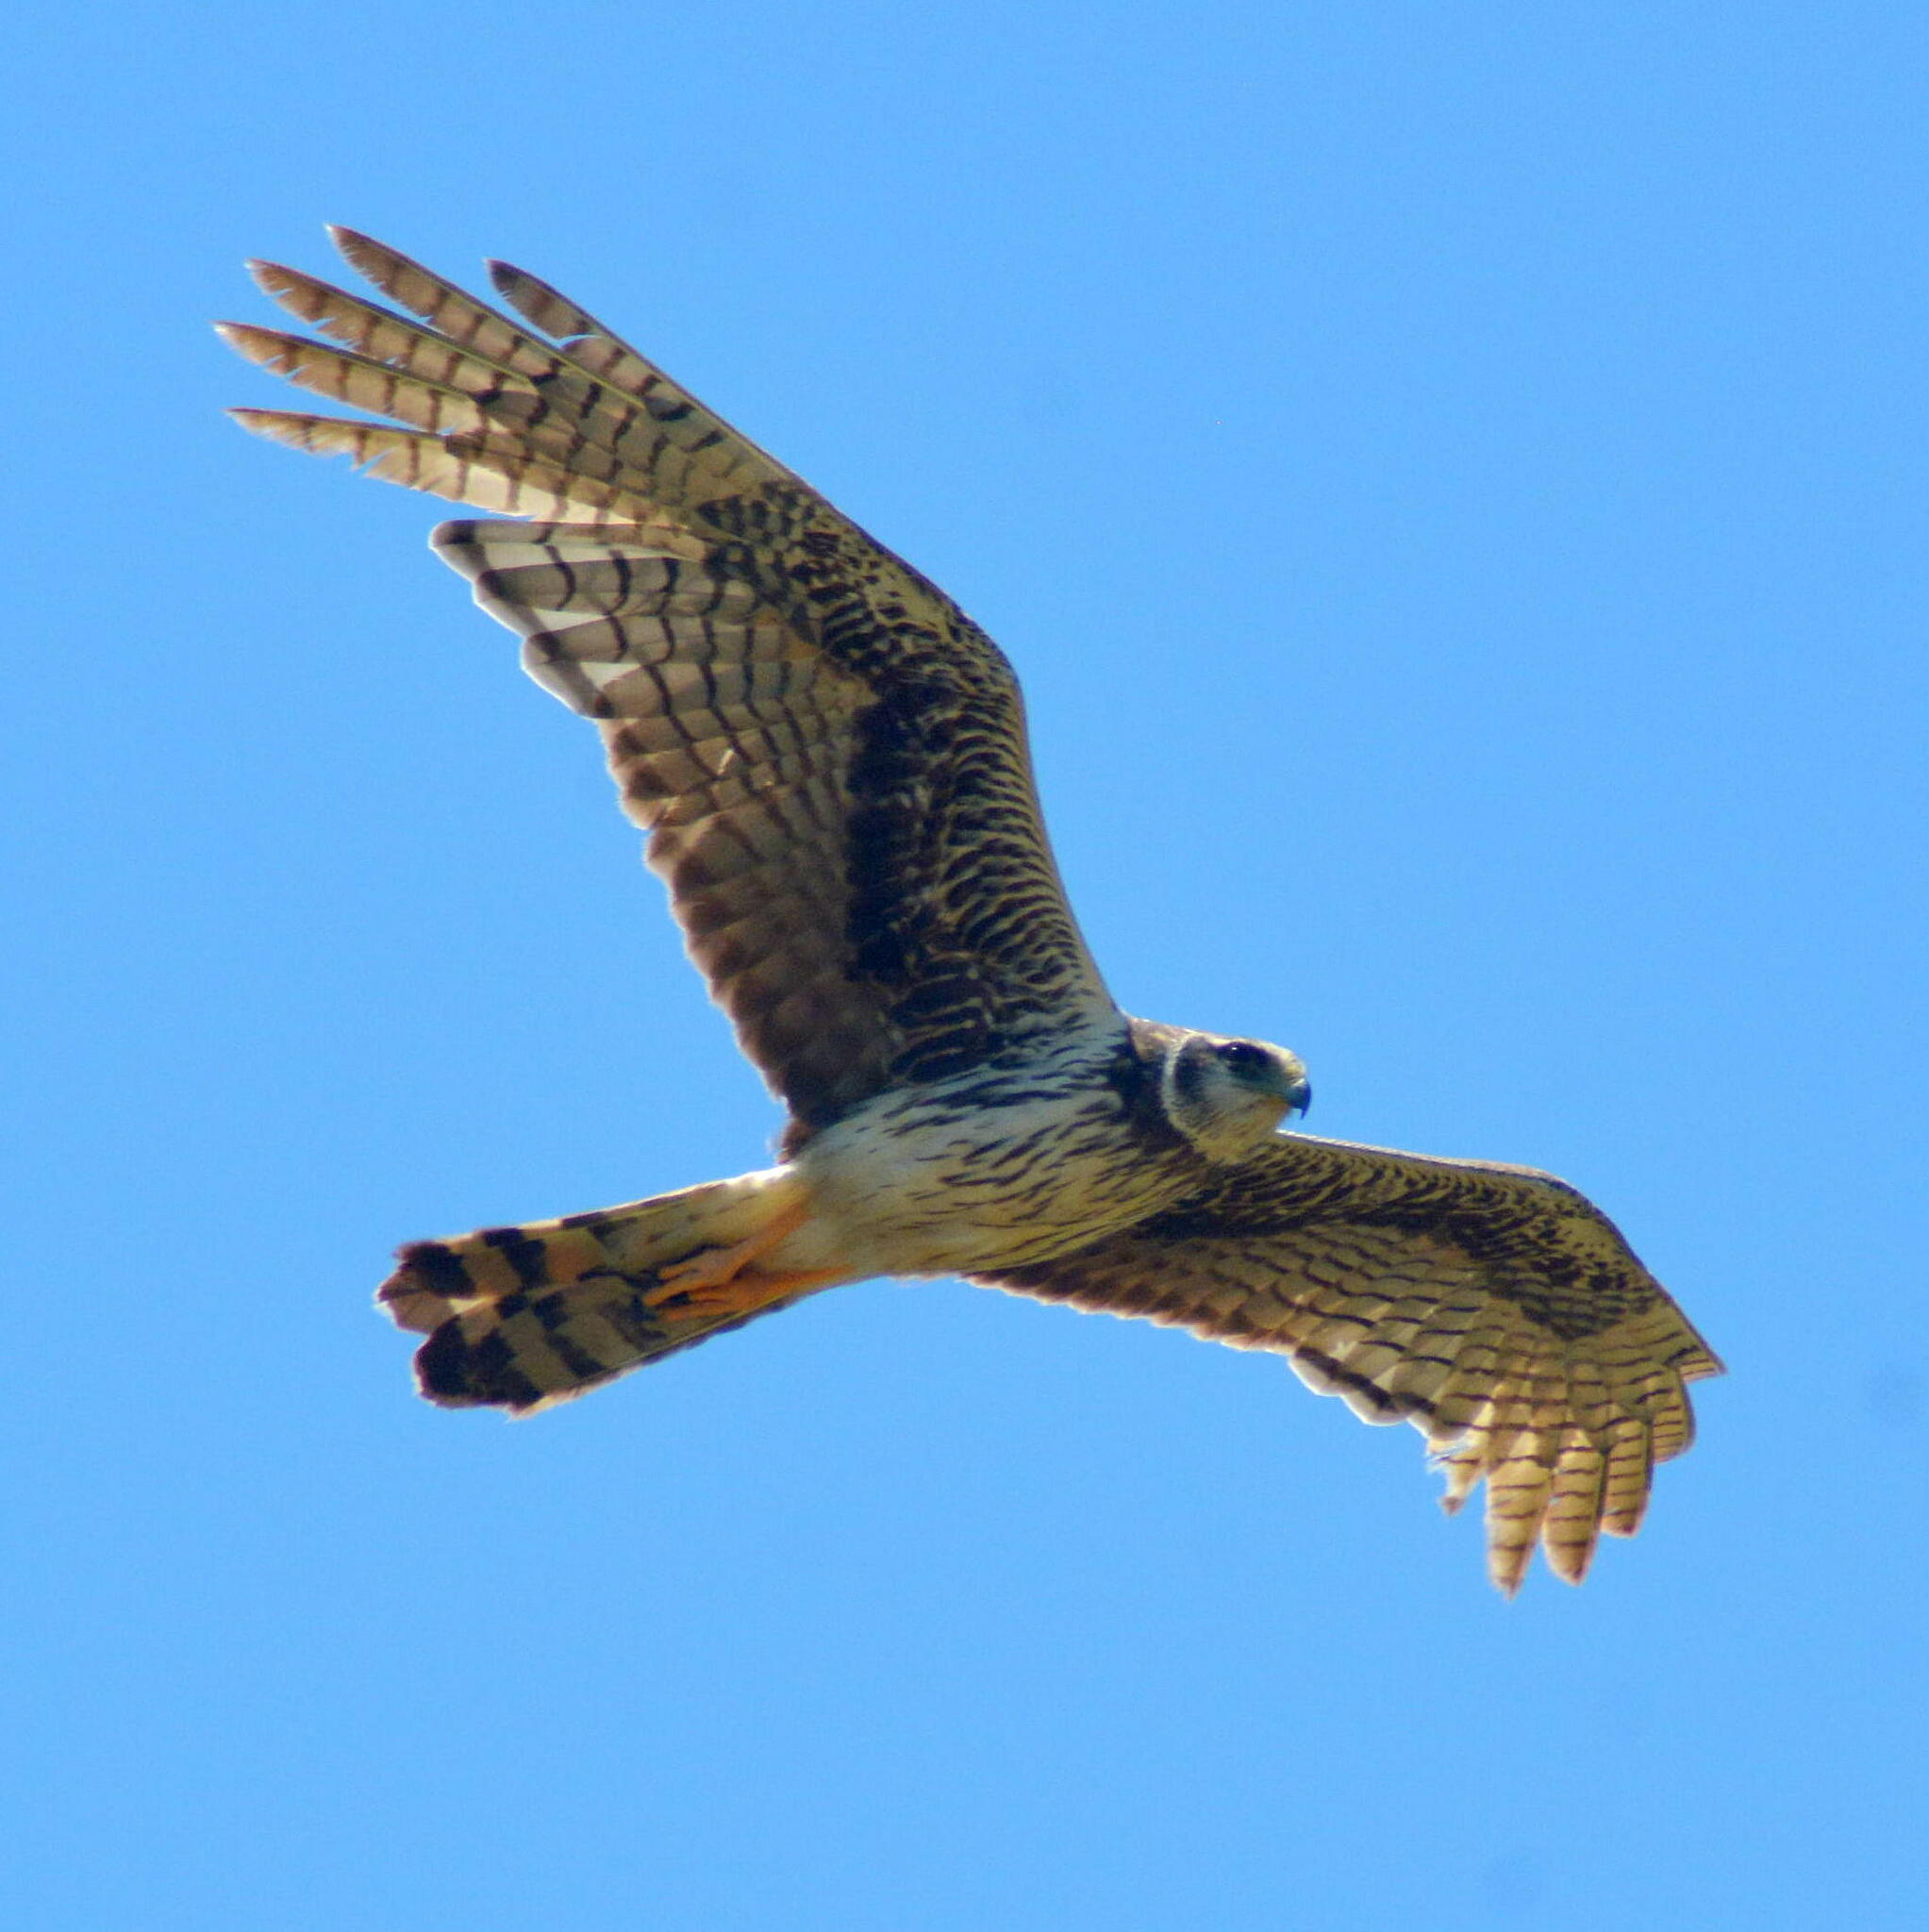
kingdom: Animalia
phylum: Chordata
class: Aves
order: Accipitriformes
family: Accipitridae
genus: Circus
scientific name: Circus buffoni
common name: Long-winged harrier
